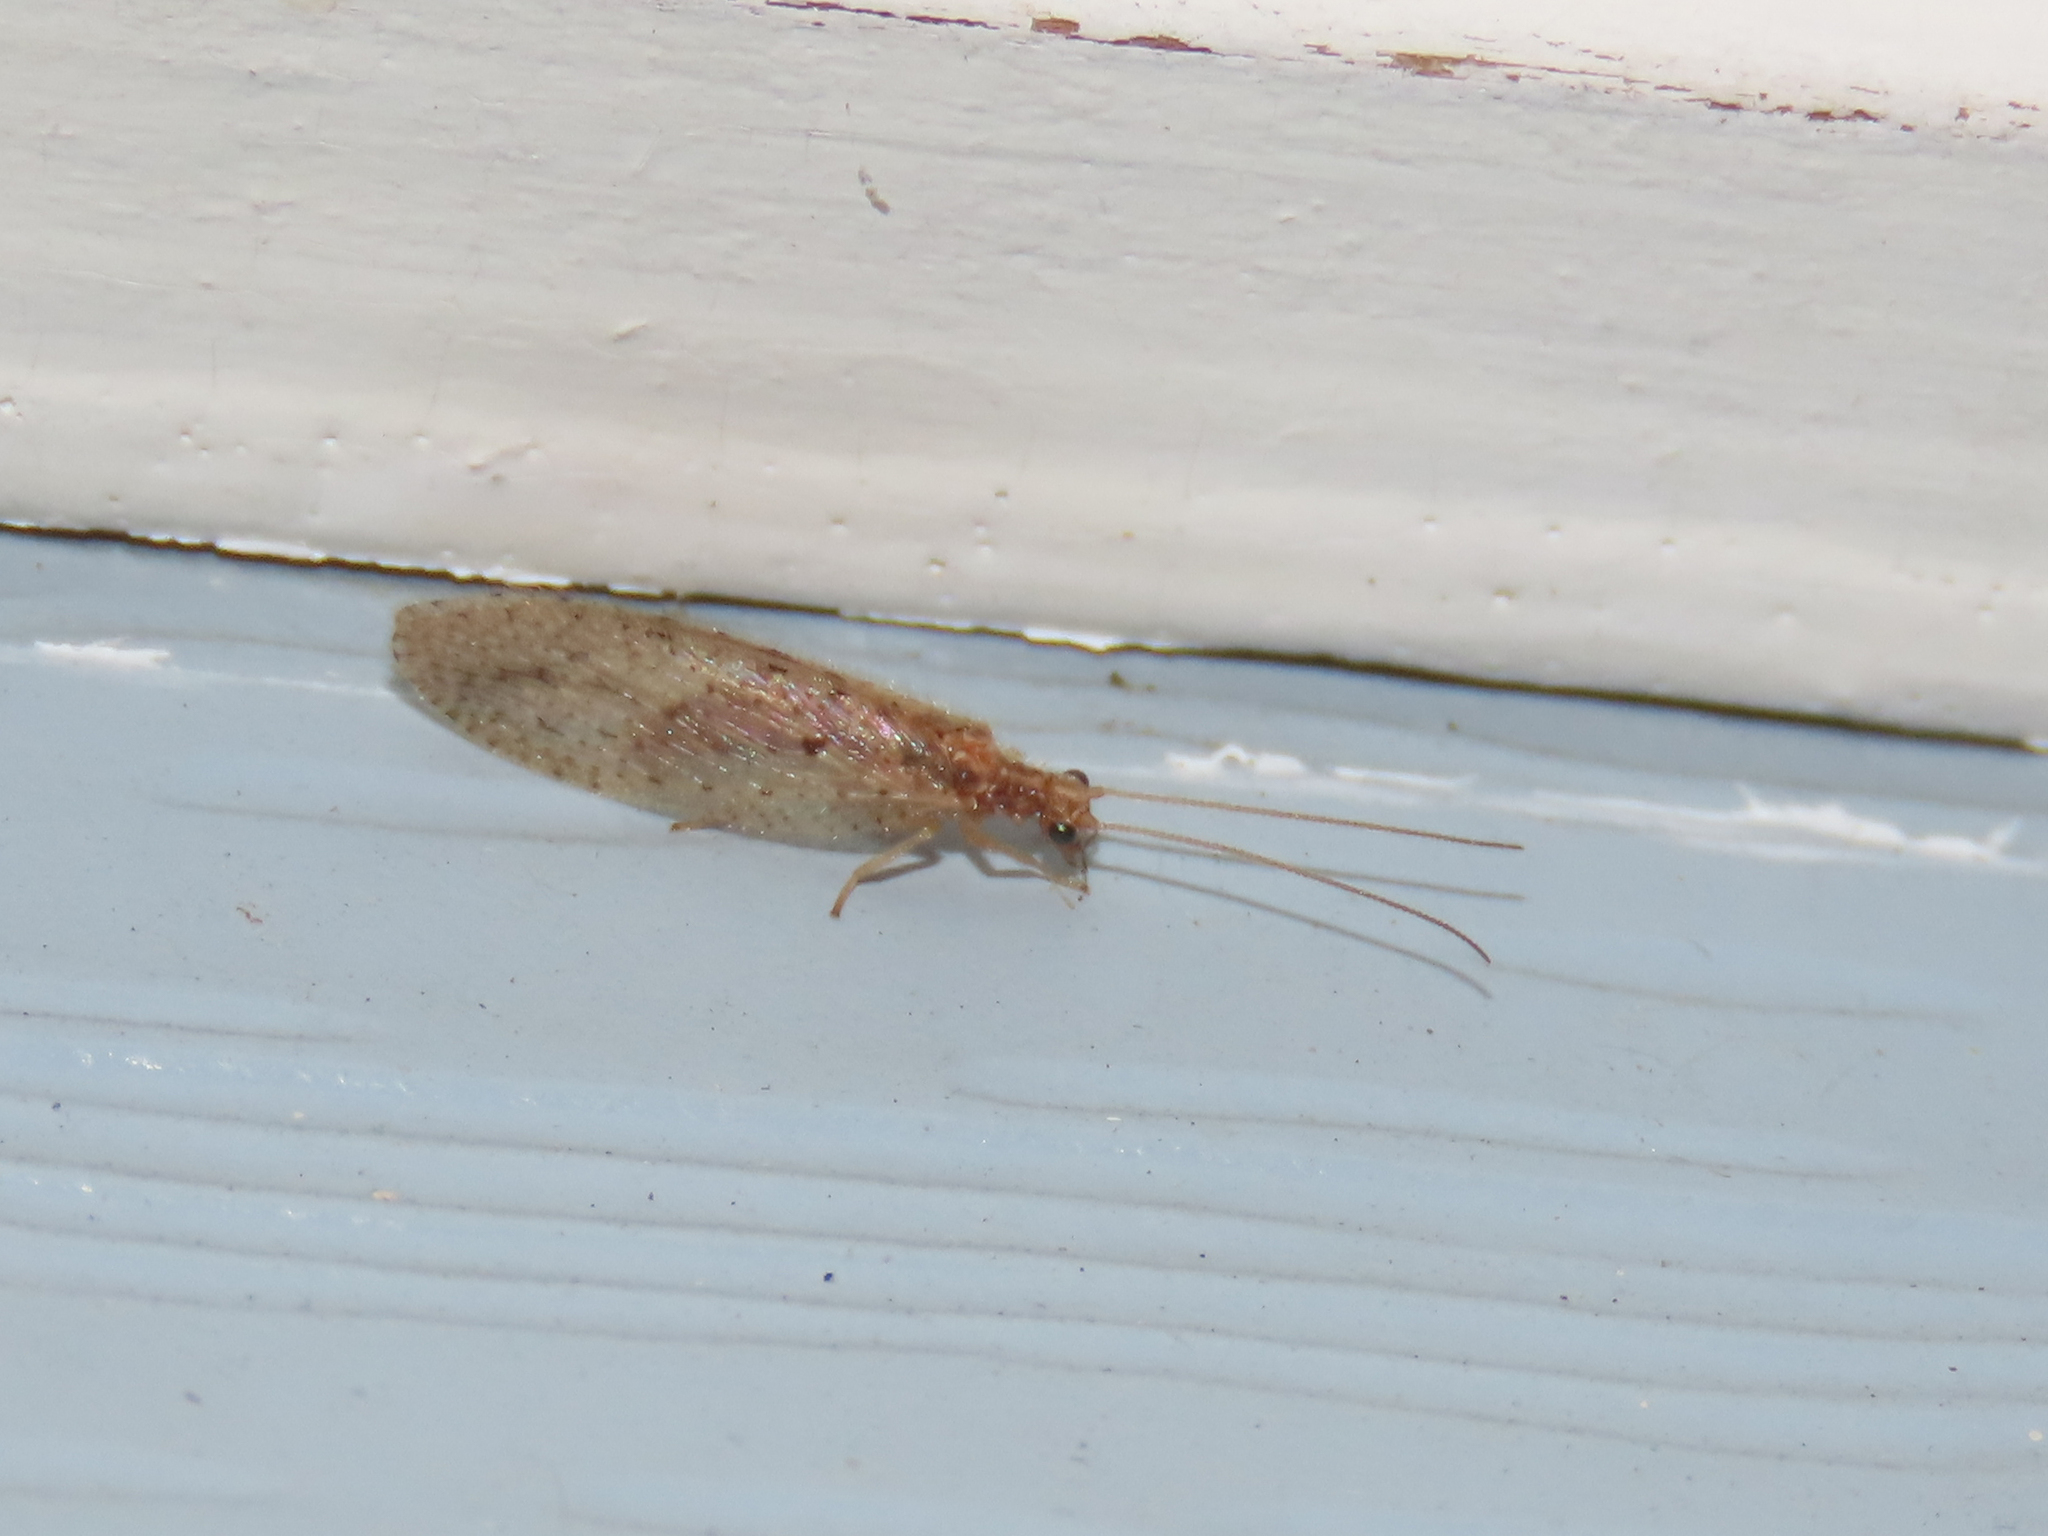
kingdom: Animalia
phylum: Arthropoda
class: Insecta
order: Neuroptera
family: Hemerobiidae
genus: Micromus
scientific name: Micromus subanticus
